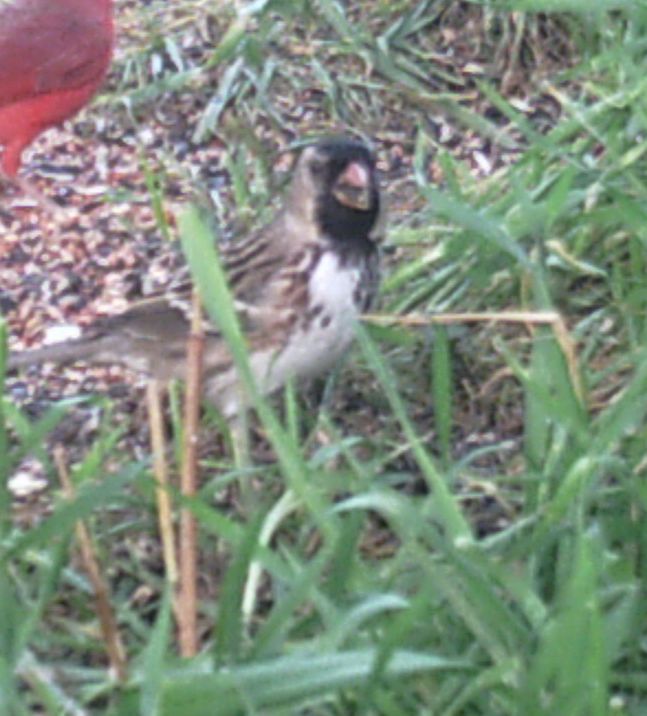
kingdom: Animalia
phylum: Chordata
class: Aves
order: Passeriformes
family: Passerellidae
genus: Zonotrichia
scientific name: Zonotrichia querula
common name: Harris's sparrow
